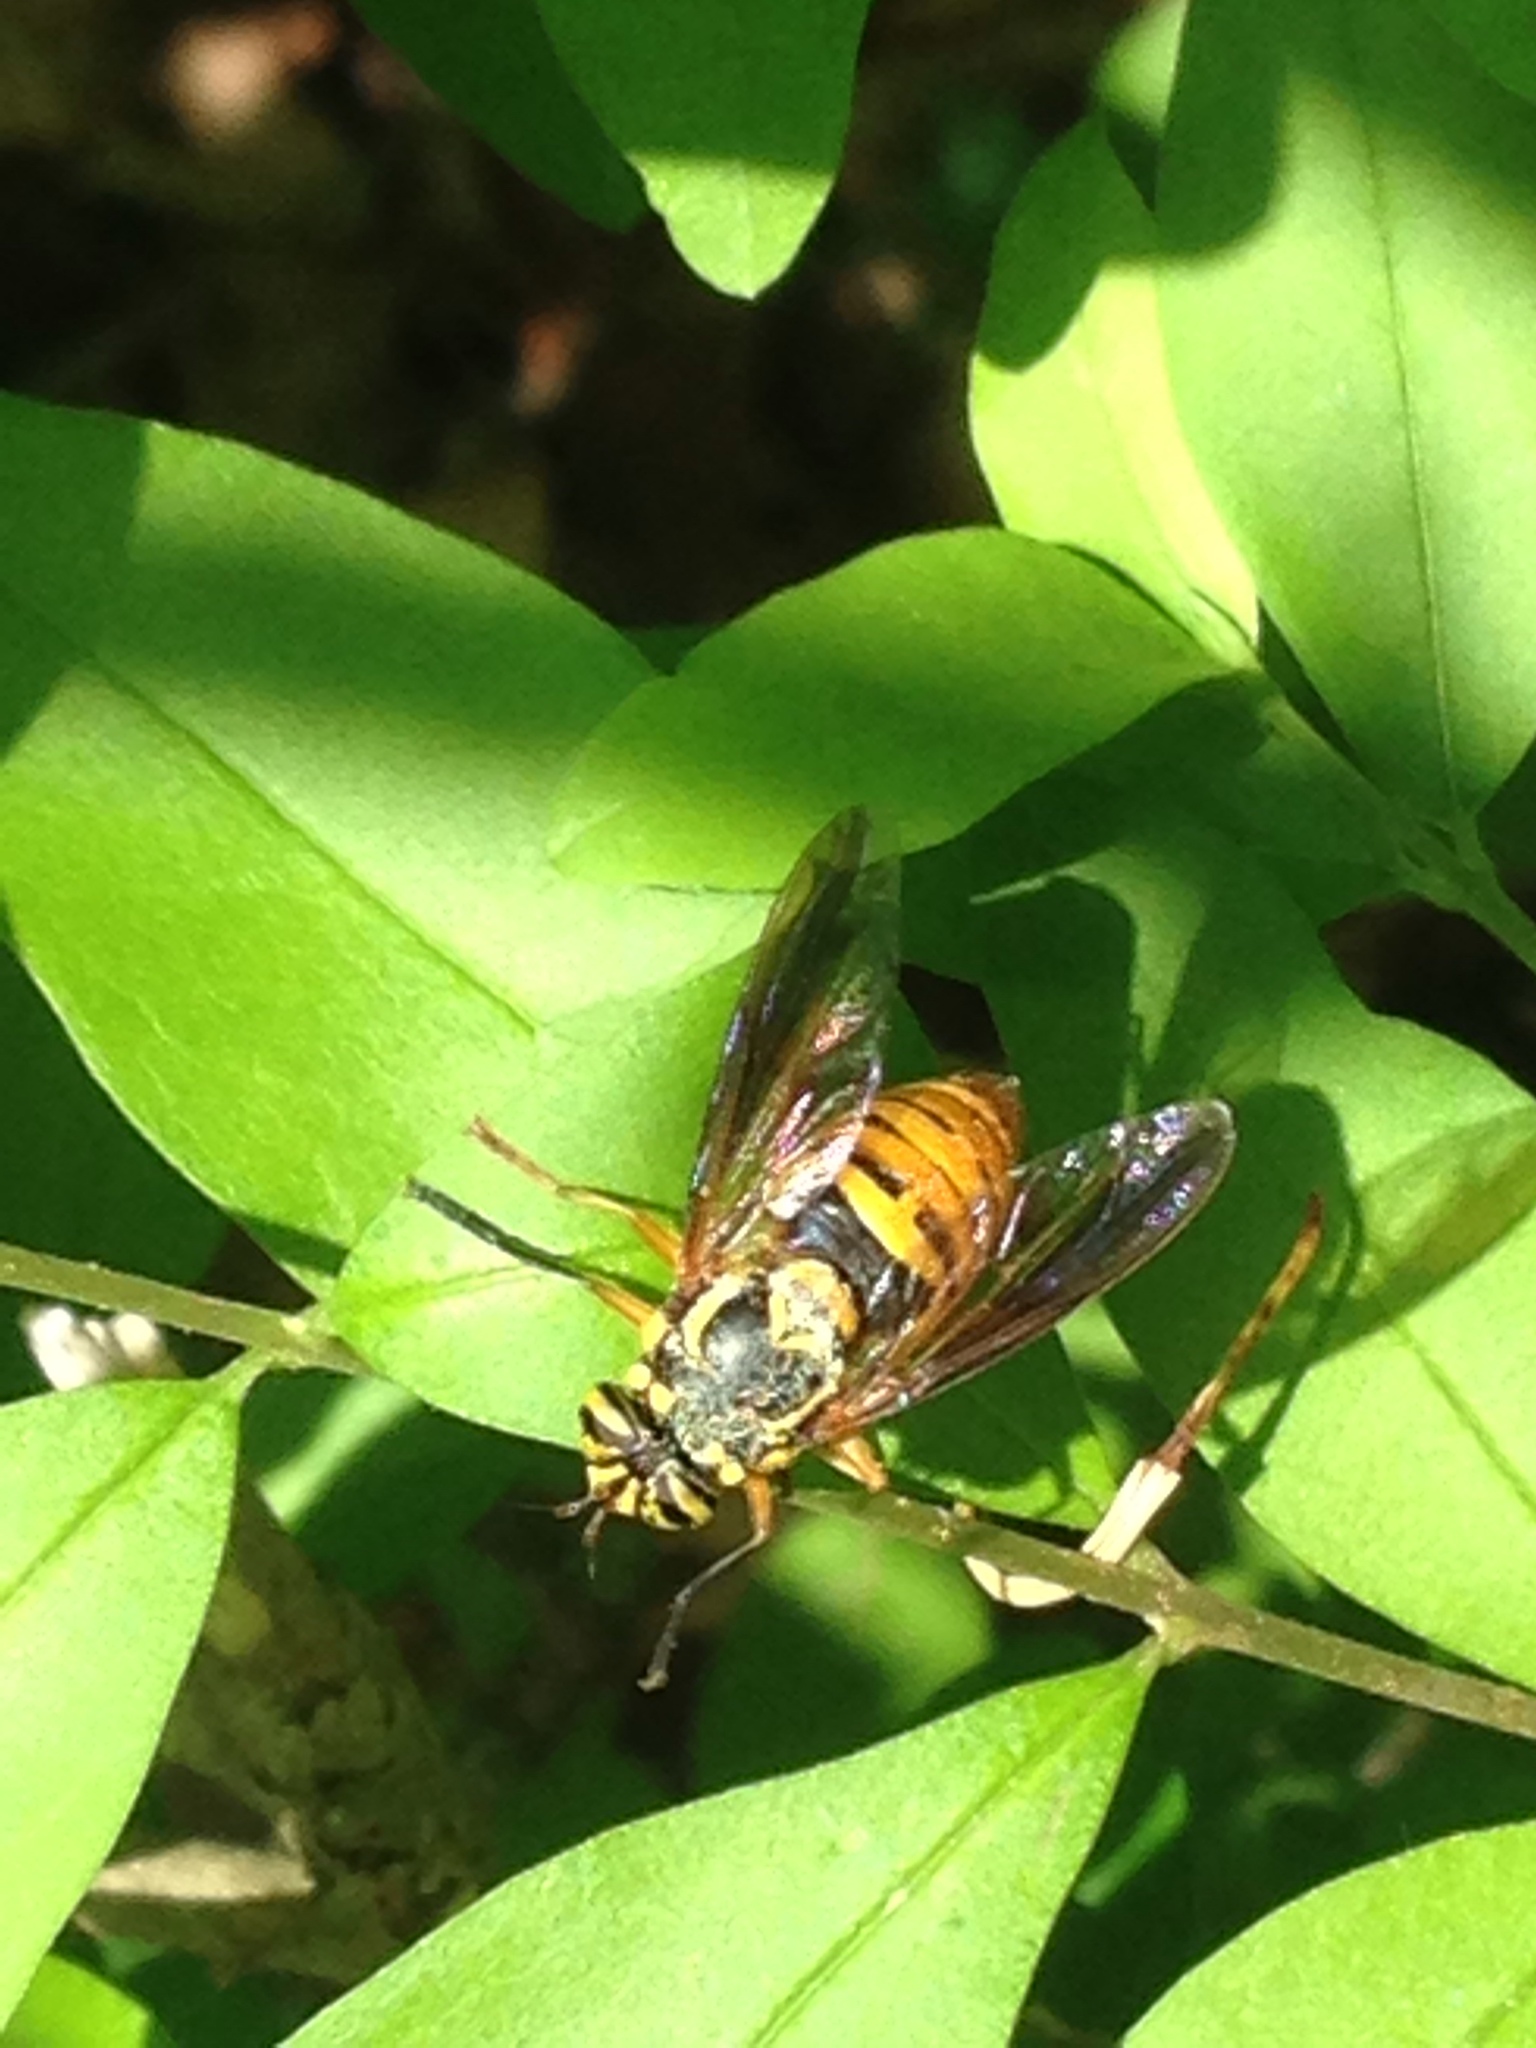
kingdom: Animalia
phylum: Arthropoda
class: Insecta
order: Diptera
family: Syrphidae
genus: Spilomyia
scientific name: Spilomyia alcimus
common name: Broad-banded hornet fly
